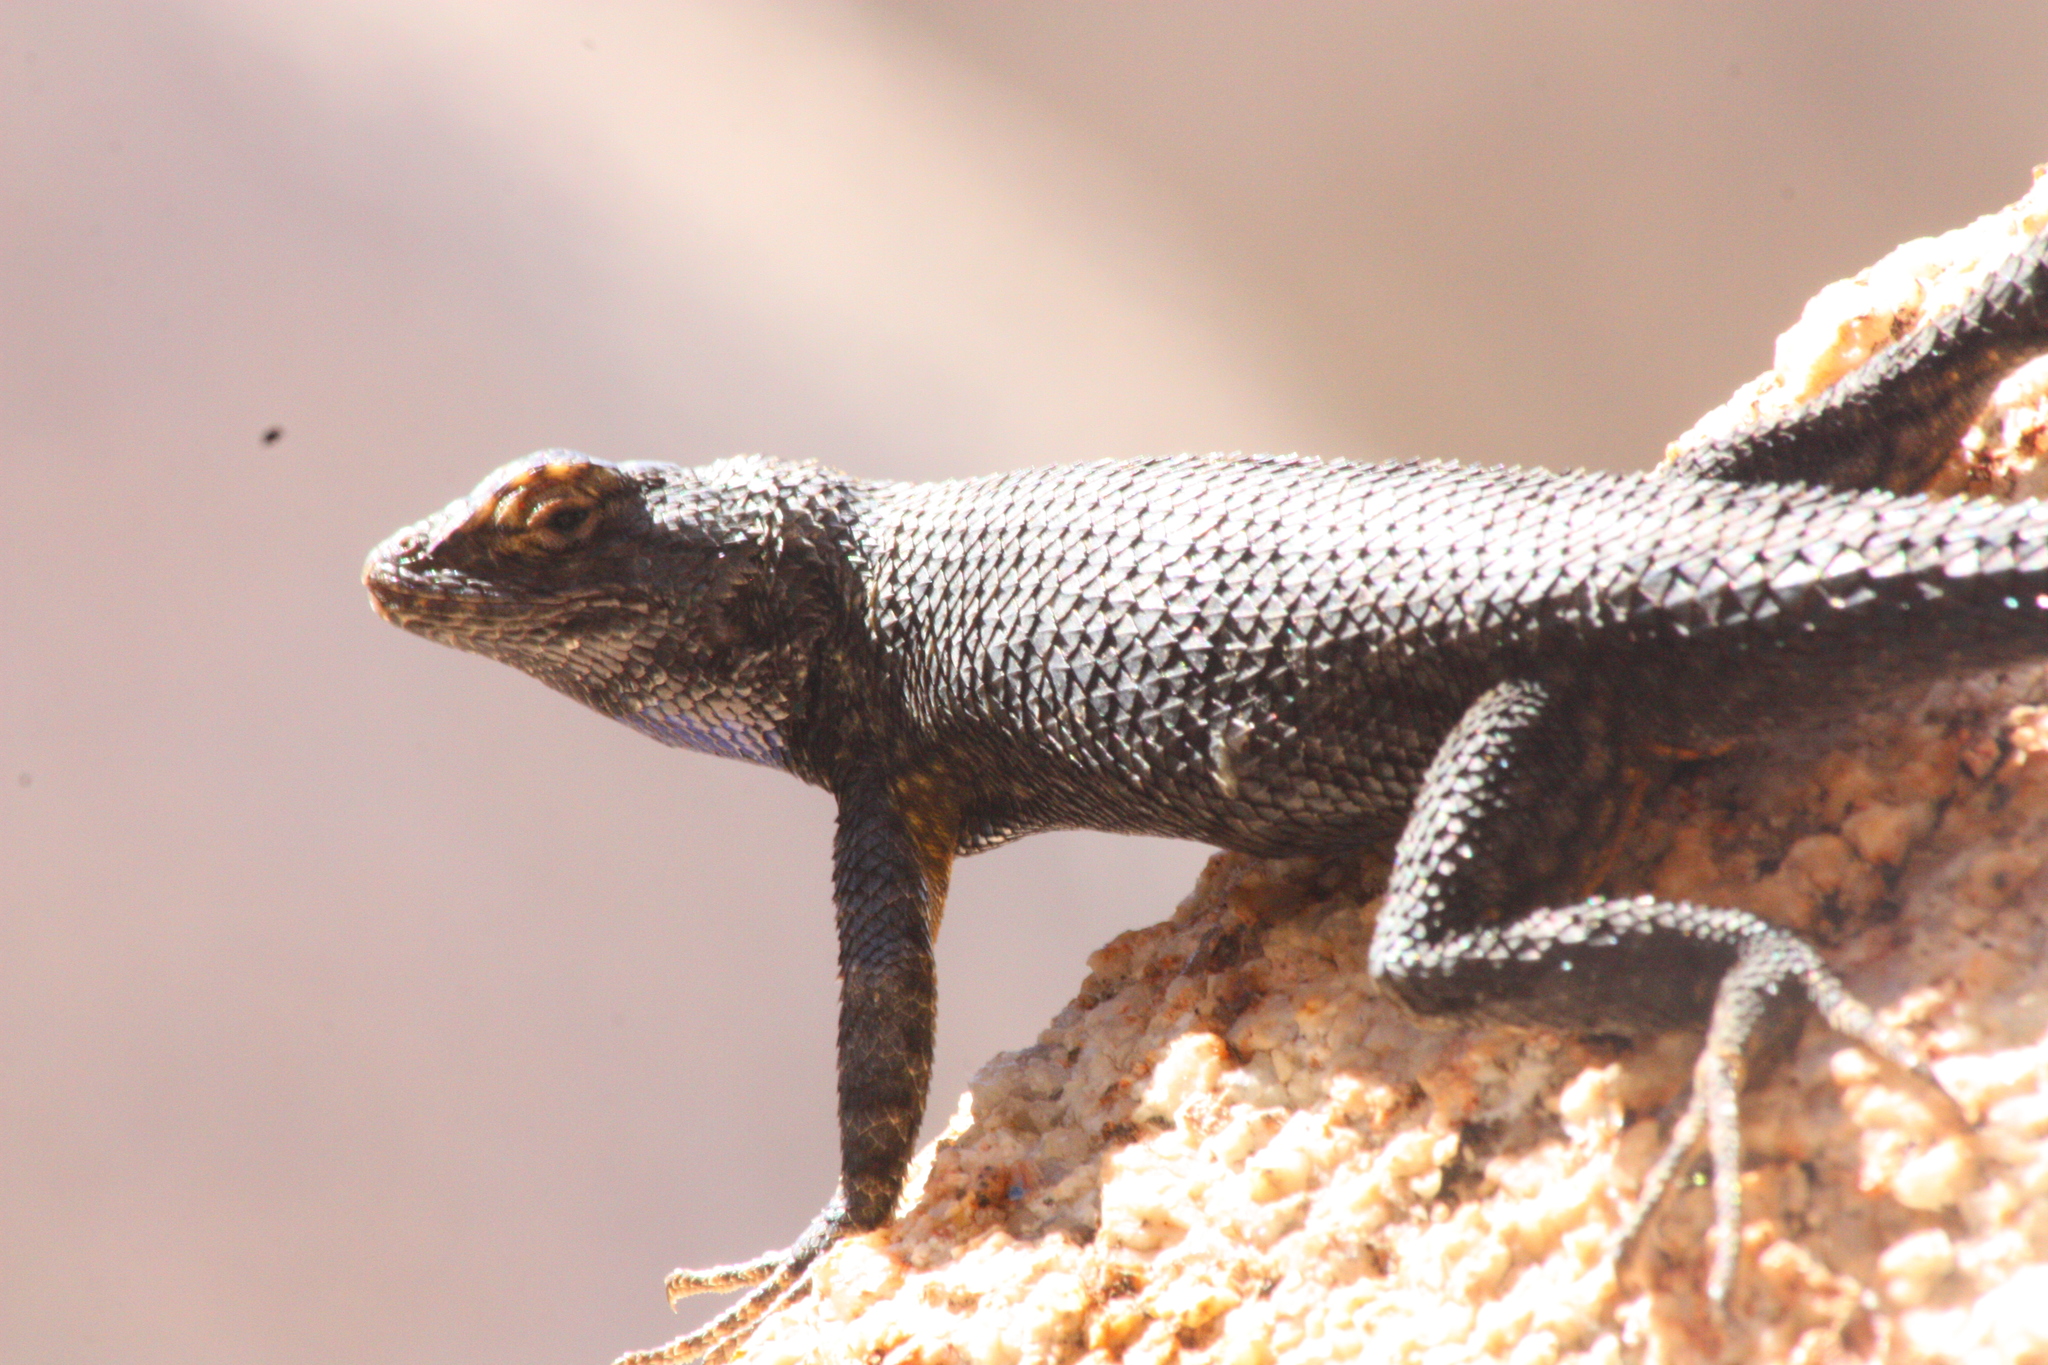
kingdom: Animalia
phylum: Chordata
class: Squamata
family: Phrynosomatidae
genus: Sceloporus
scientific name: Sceloporus occidentalis
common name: Western fence lizard
